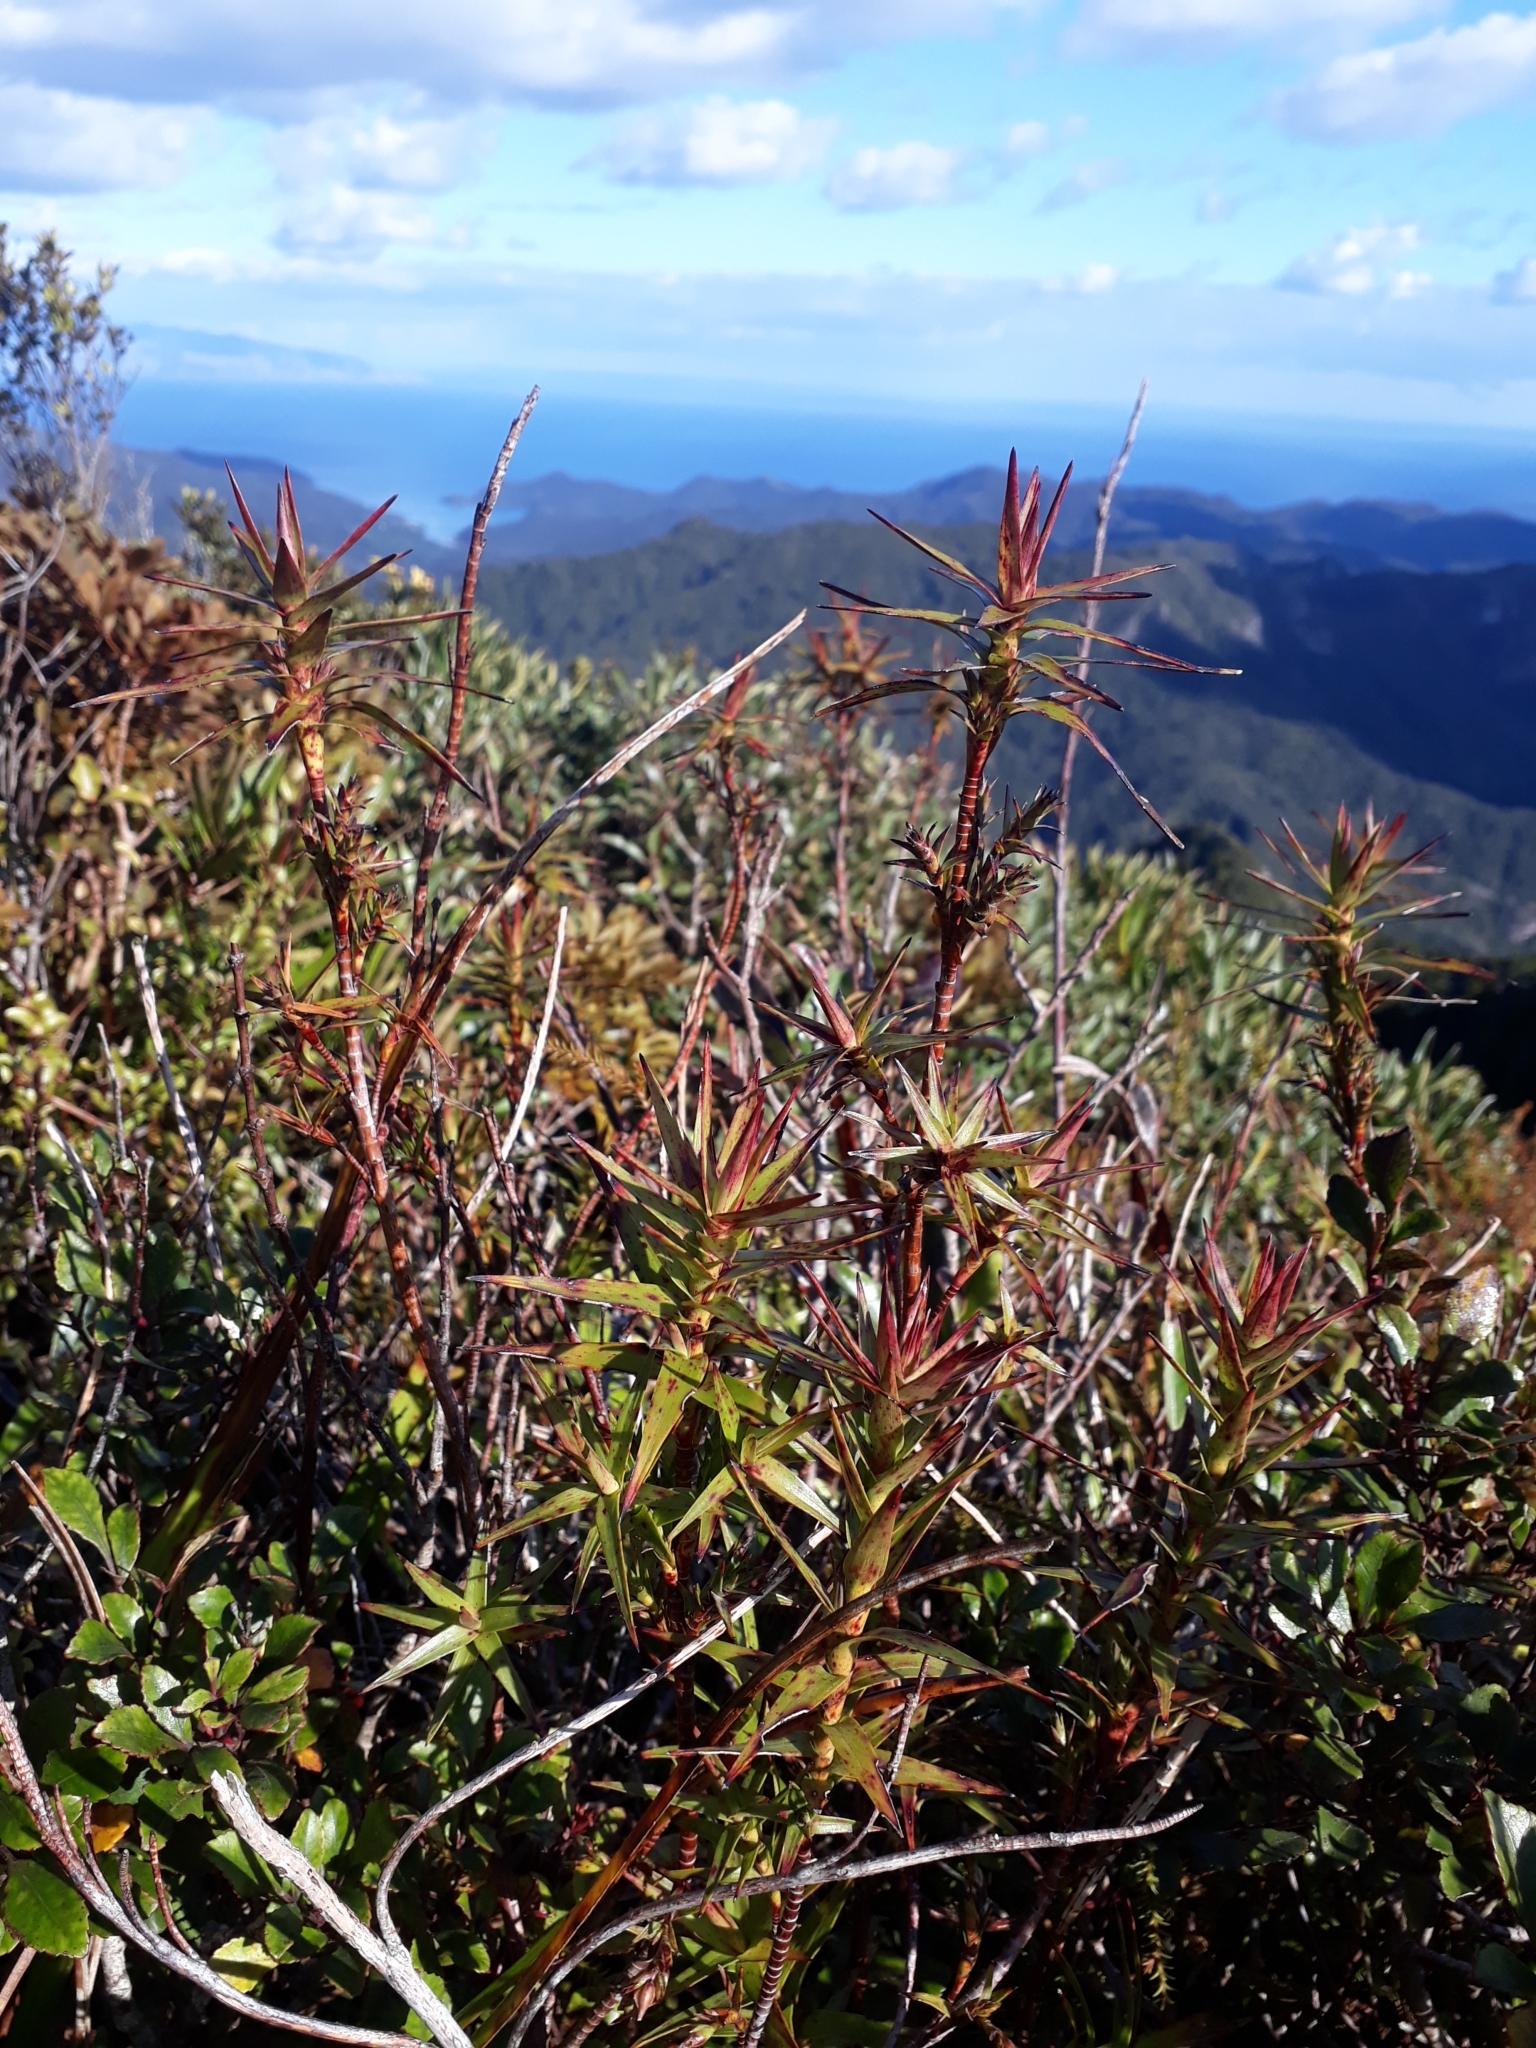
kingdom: Plantae
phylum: Tracheophyta
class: Magnoliopsida
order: Ericales
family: Ericaceae
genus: Dracophyllum
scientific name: Dracophyllum patens
